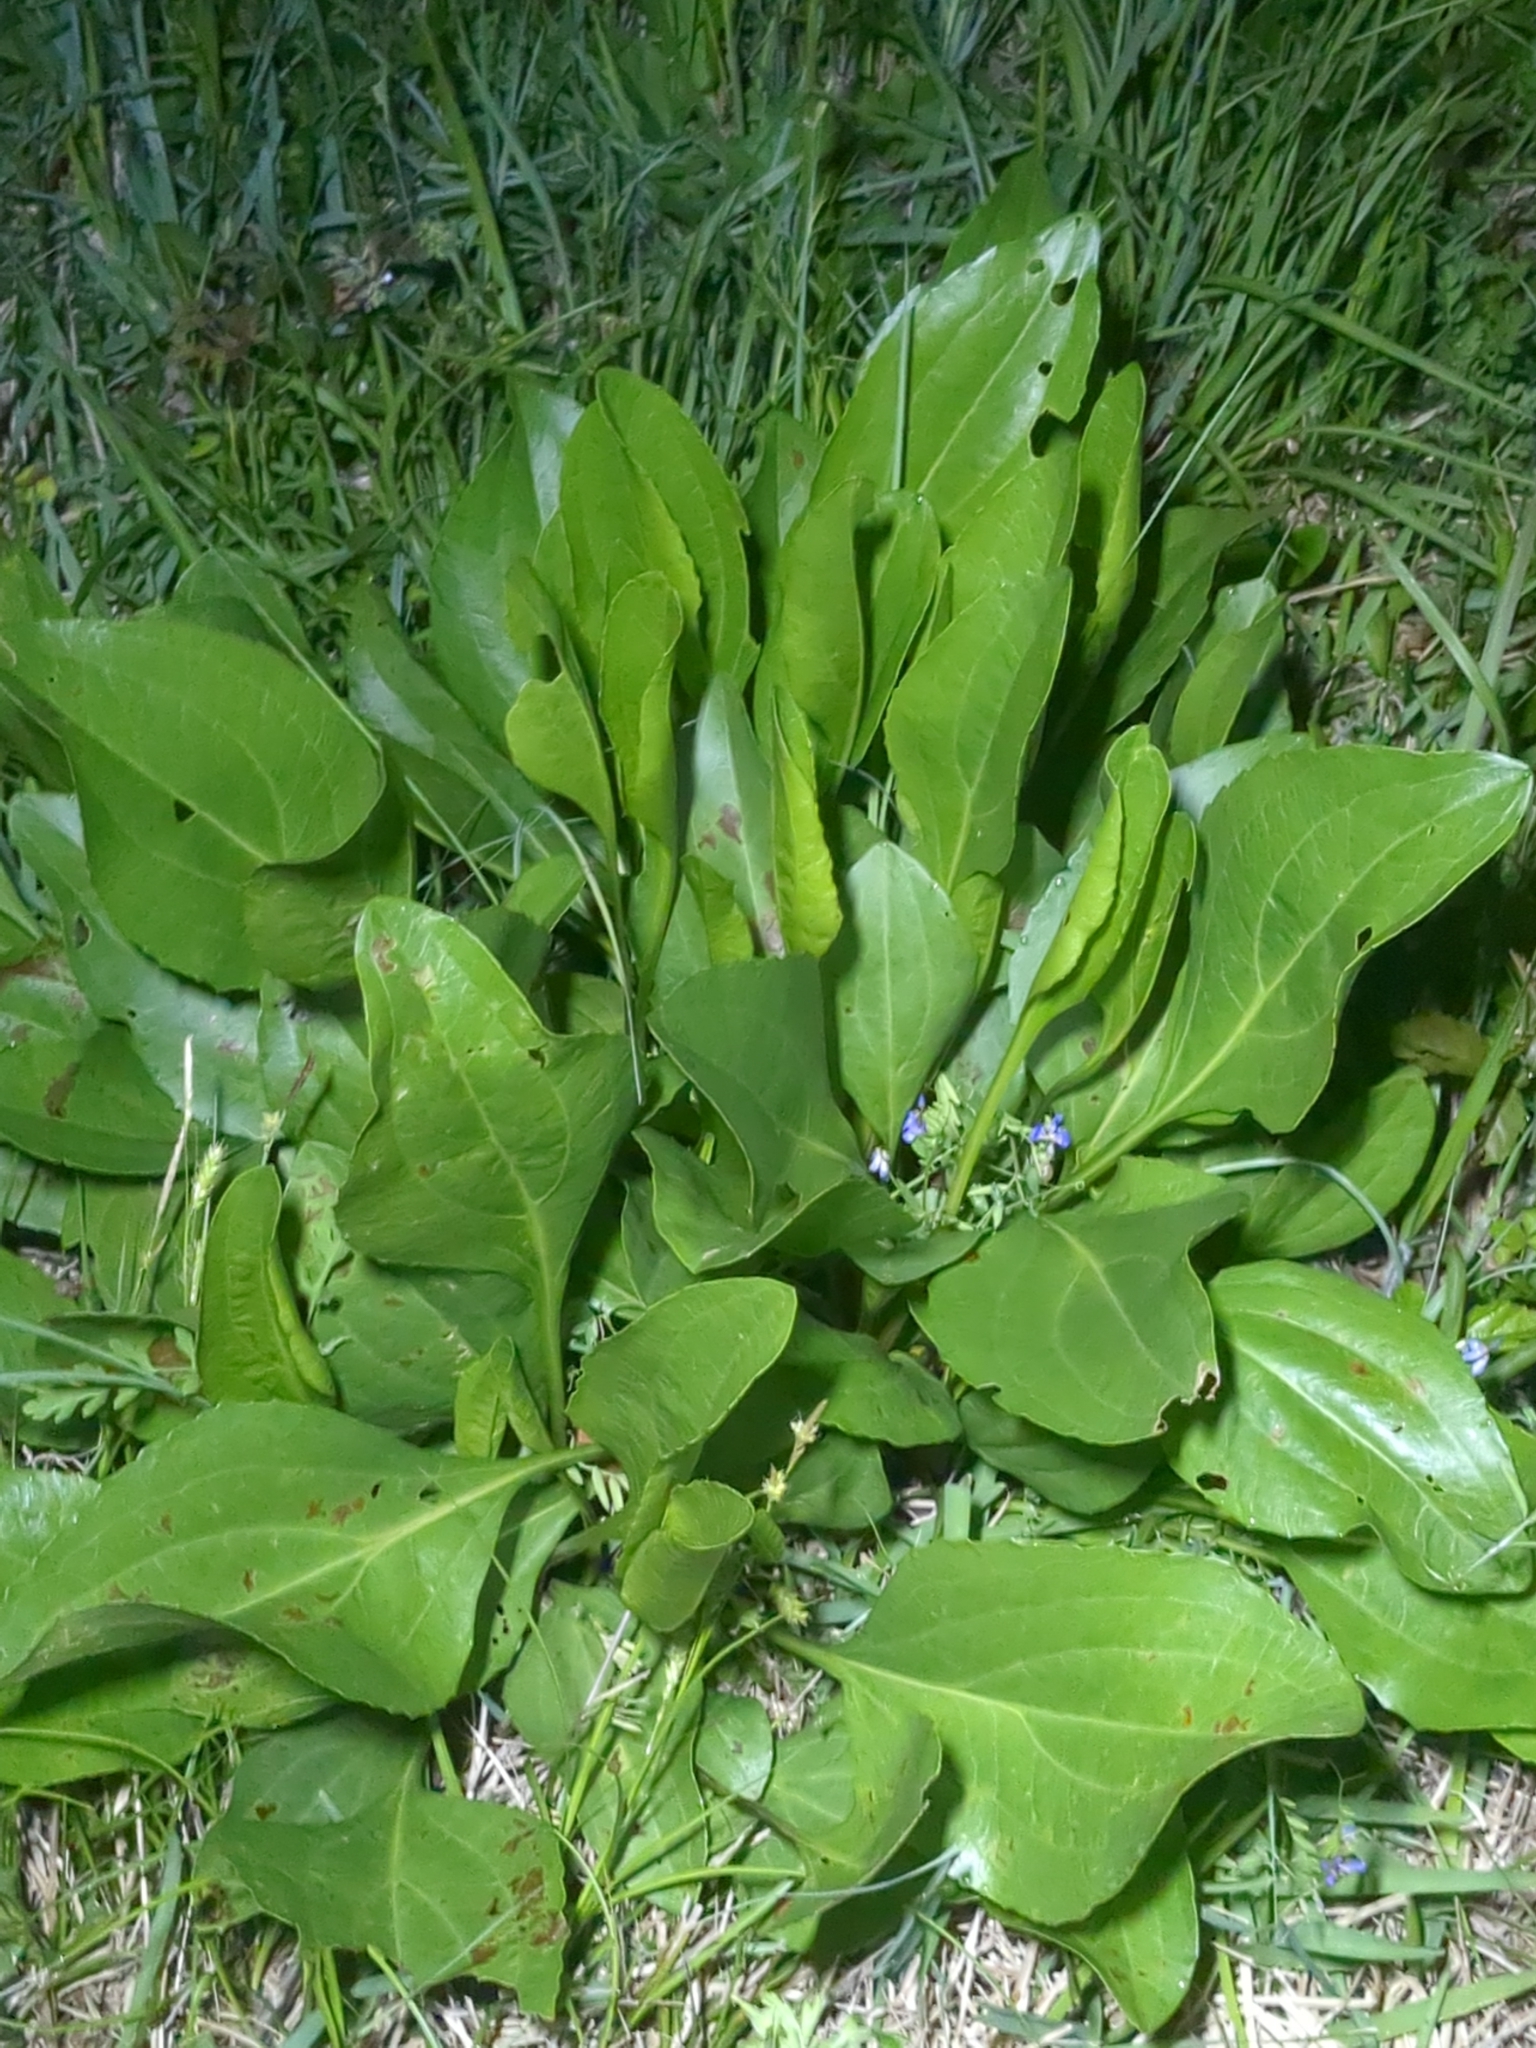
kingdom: Plantae
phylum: Tracheophyta
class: Magnoliopsida
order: Asterales
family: Asteraceae
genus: Rudbeckia
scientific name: Rudbeckia texana
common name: Texas coneflower
